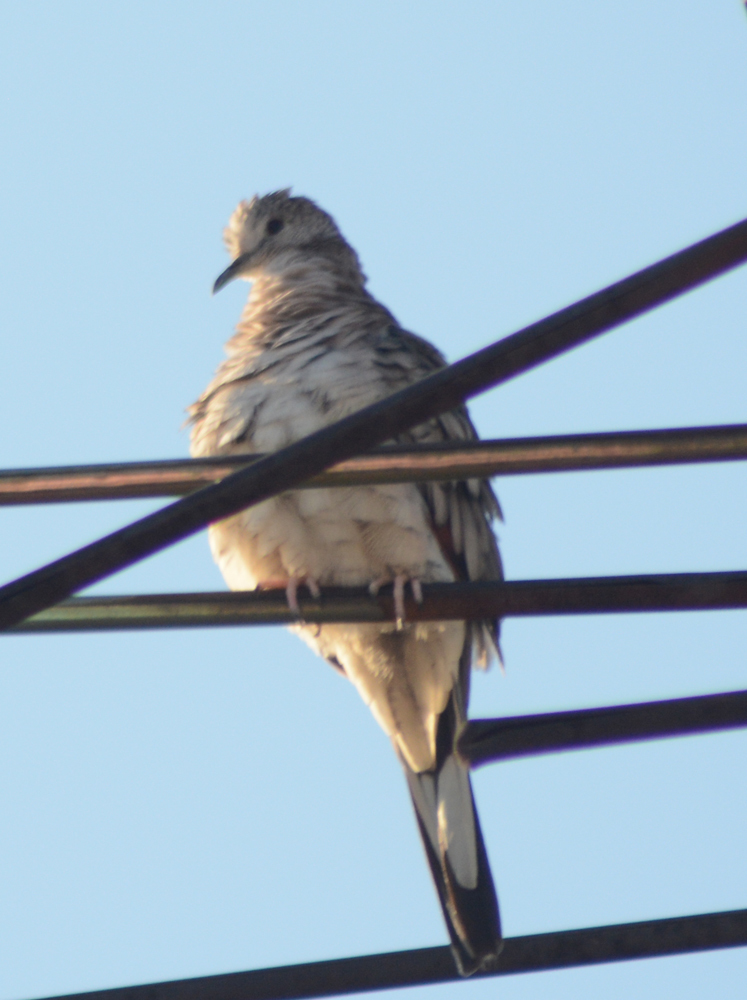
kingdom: Animalia
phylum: Chordata
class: Aves
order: Columbiformes
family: Columbidae
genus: Columbina
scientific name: Columbina inca
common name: Inca dove
